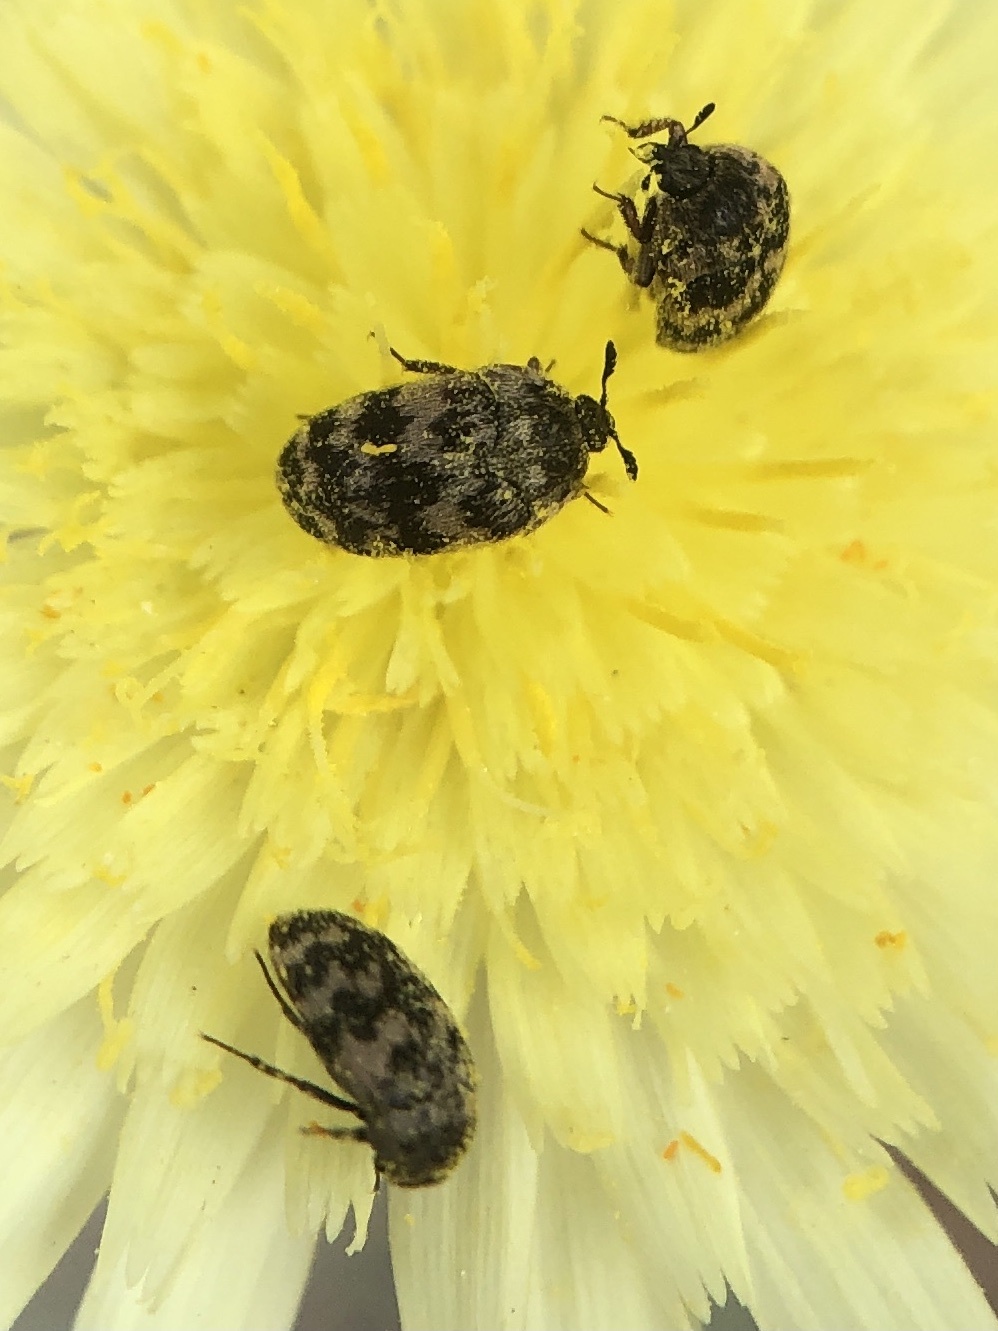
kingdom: Animalia
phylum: Arthropoda
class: Insecta
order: Coleoptera
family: Dermestidae
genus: Attagenus
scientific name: Attagenus trifasciatus
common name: Carpet beetle
